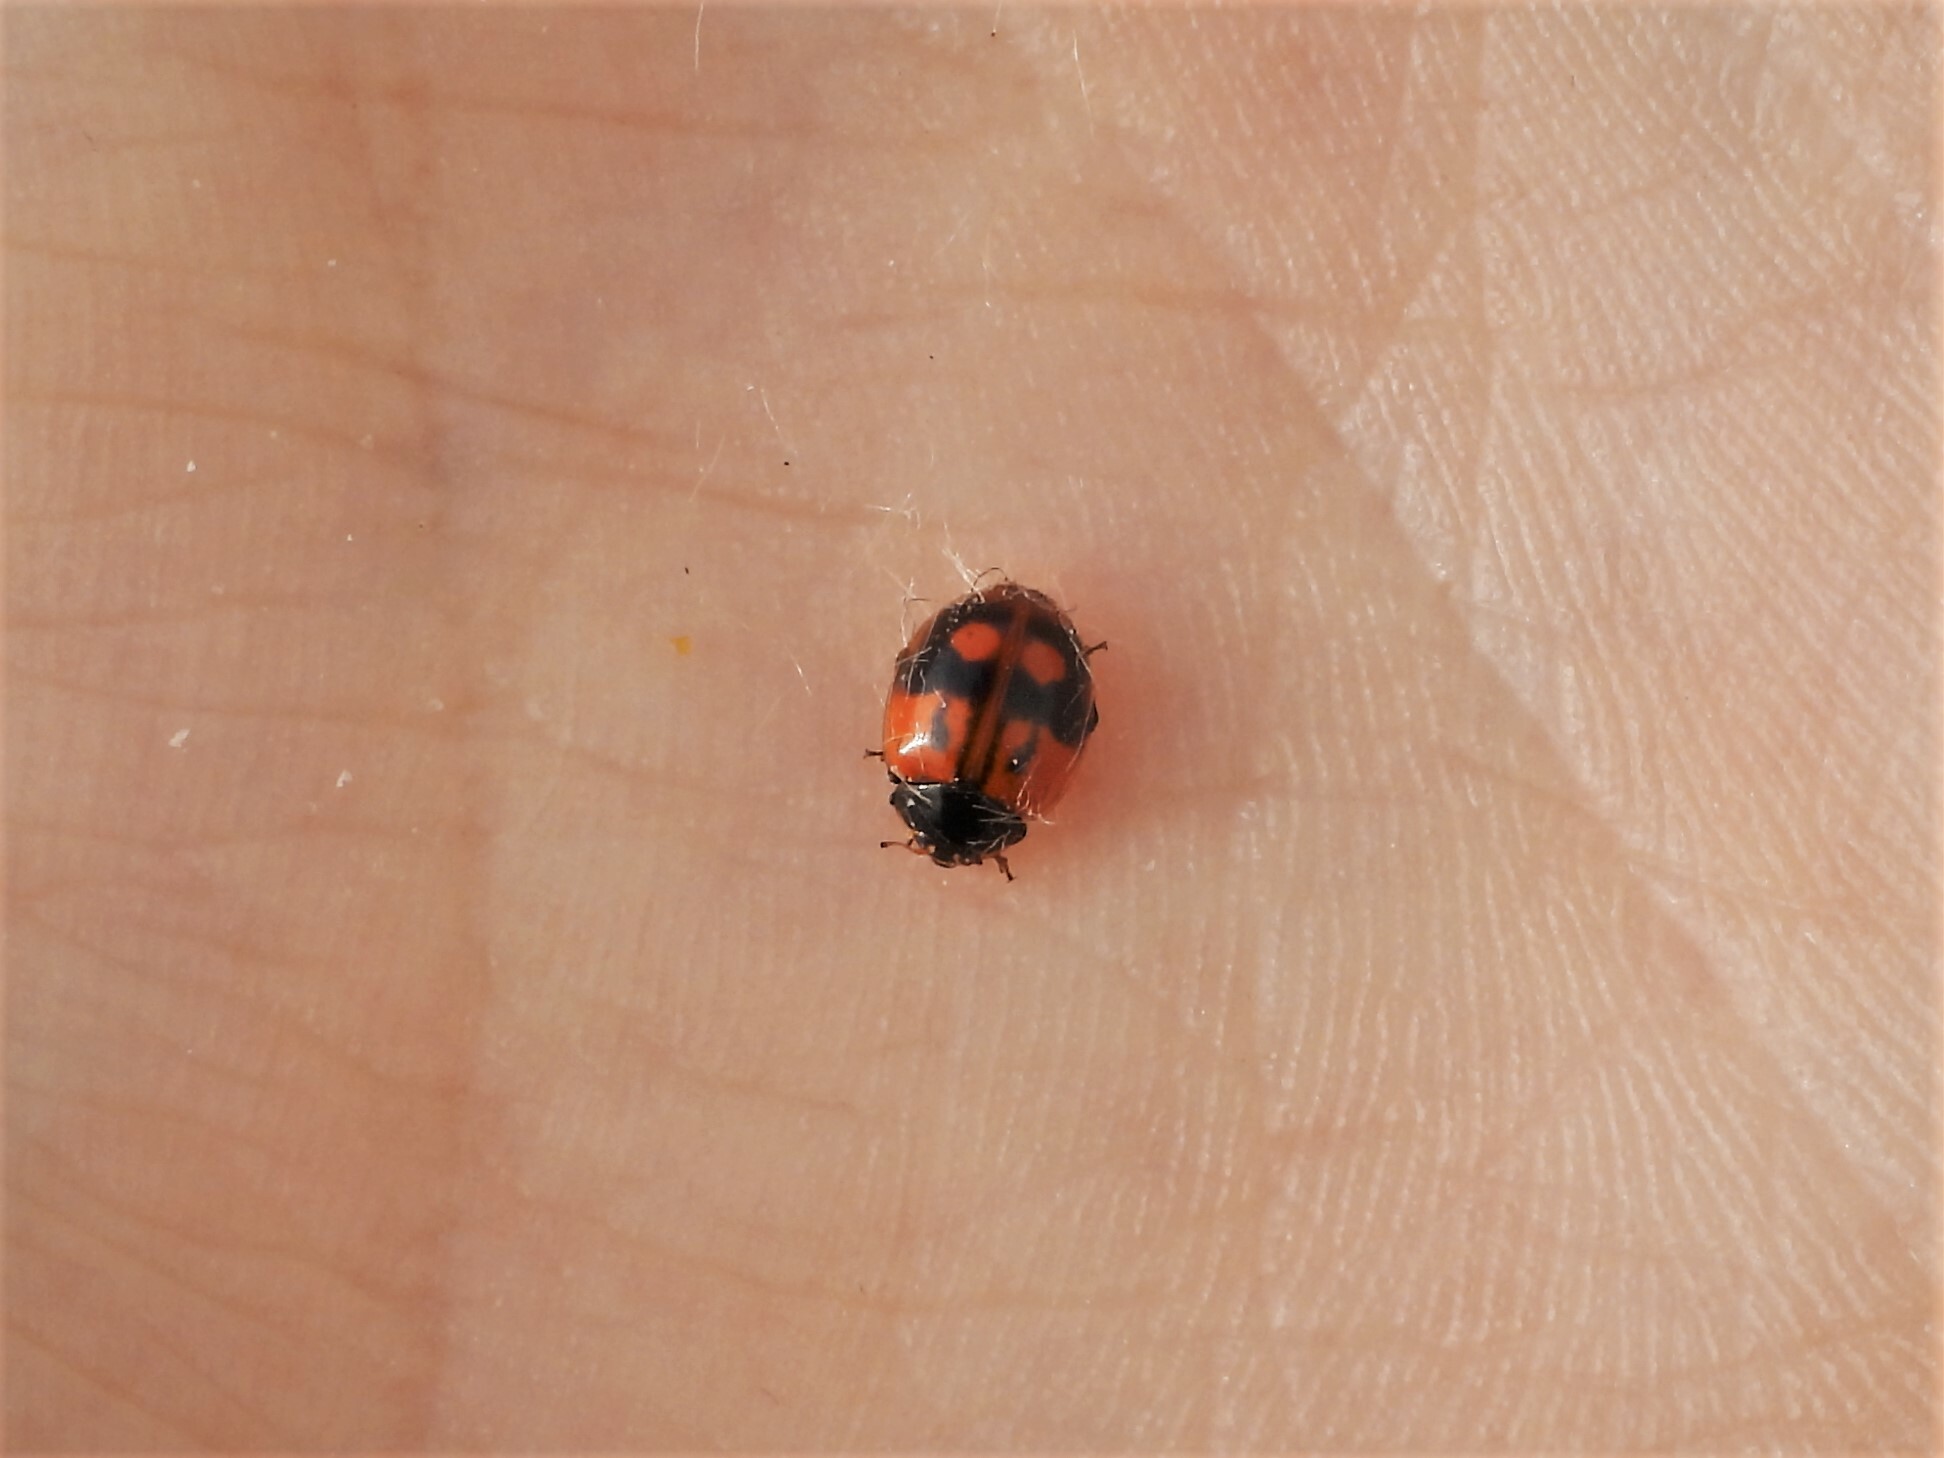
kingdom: Animalia
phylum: Arthropoda
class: Insecta
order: Coleoptera
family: Coccinellidae
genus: Adalia
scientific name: Adalia bipunctata
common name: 2-spot ladybird
